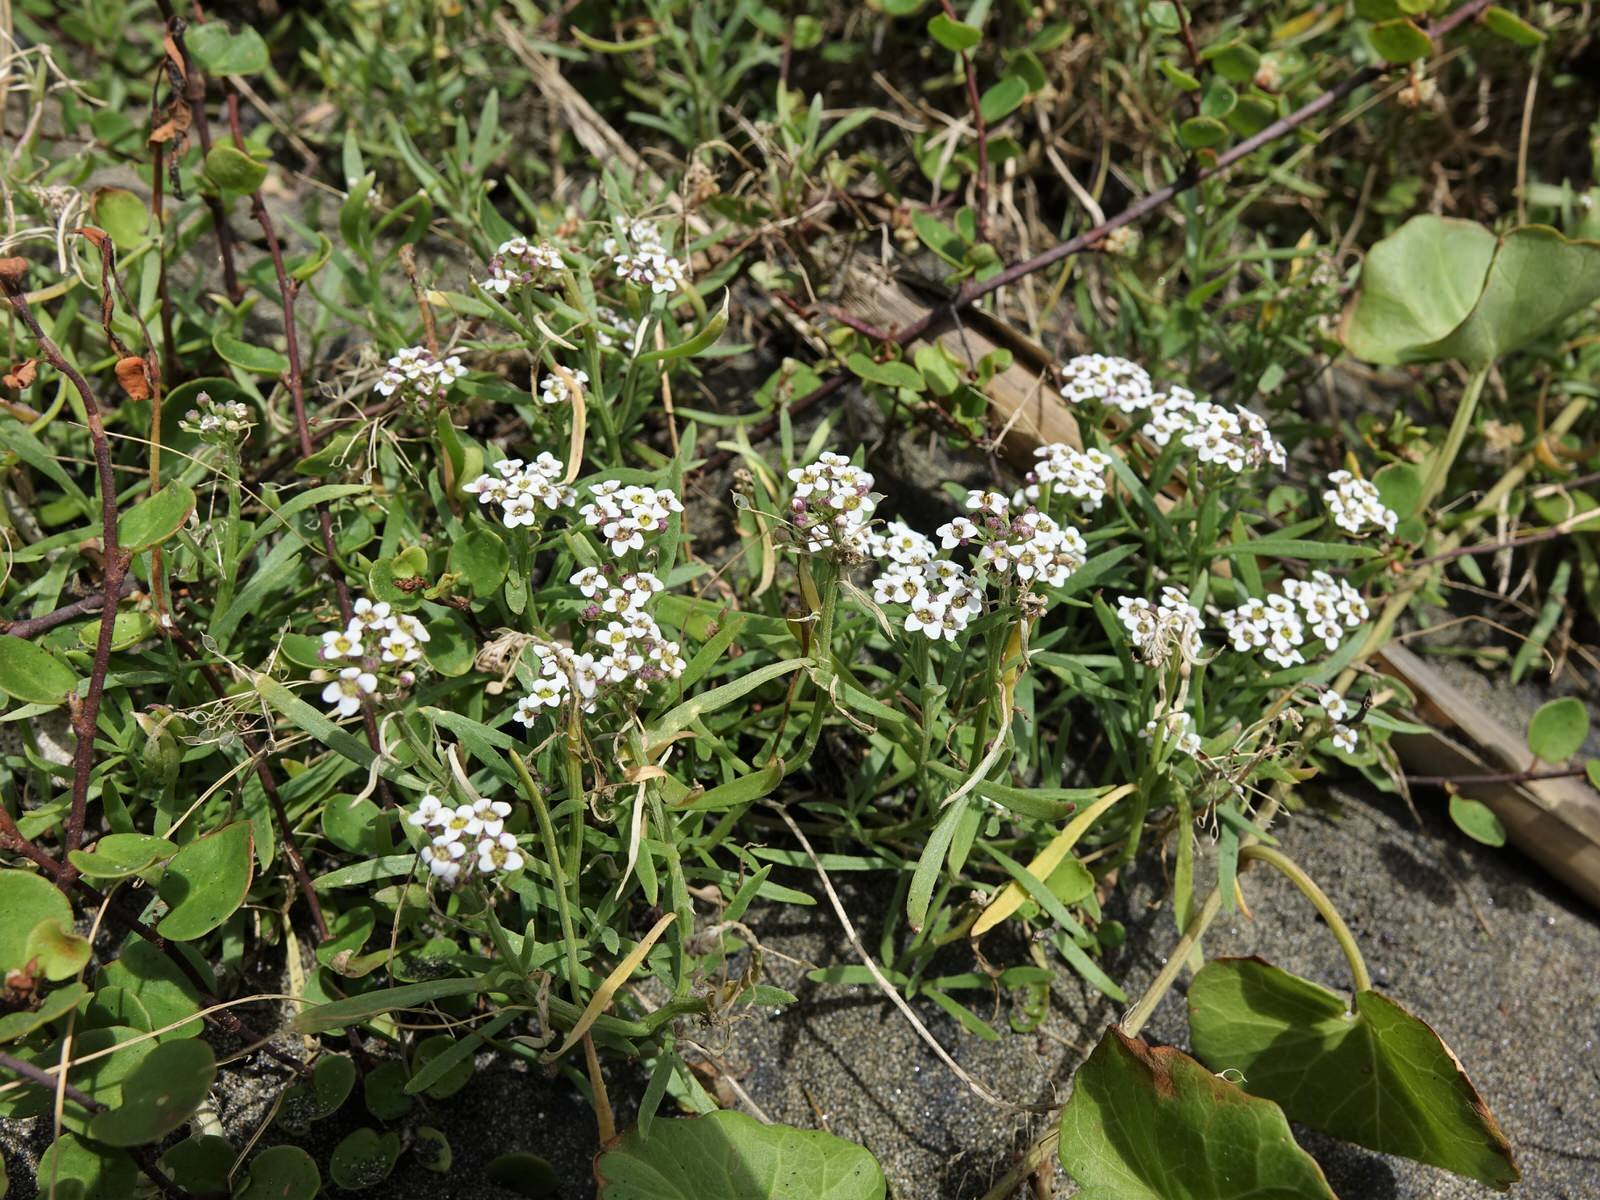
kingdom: Plantae
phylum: Tracheophyta
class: Magnoliopsida
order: Brassicales
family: Brassicaceae
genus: Lobularia
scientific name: Lobularia maritima
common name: Sweet alison
